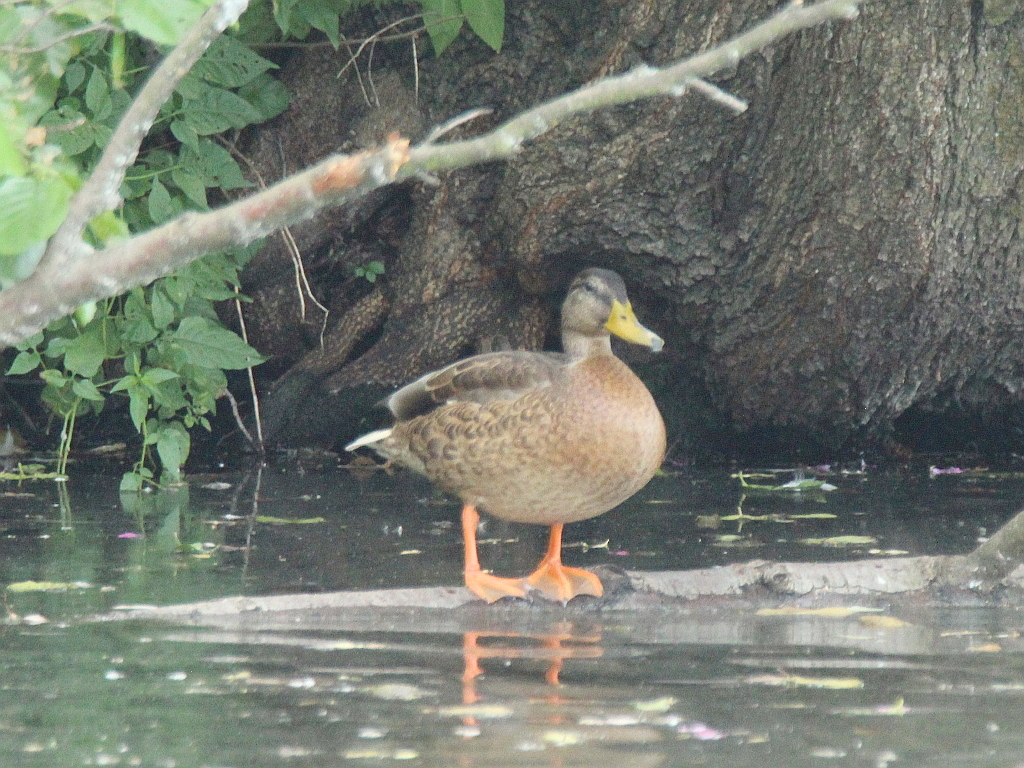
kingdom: Animalia
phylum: Chordata
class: Aves
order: Anseriformes
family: Anatidae
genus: Anas
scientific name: Anas platyrhynchos
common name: Mallard
